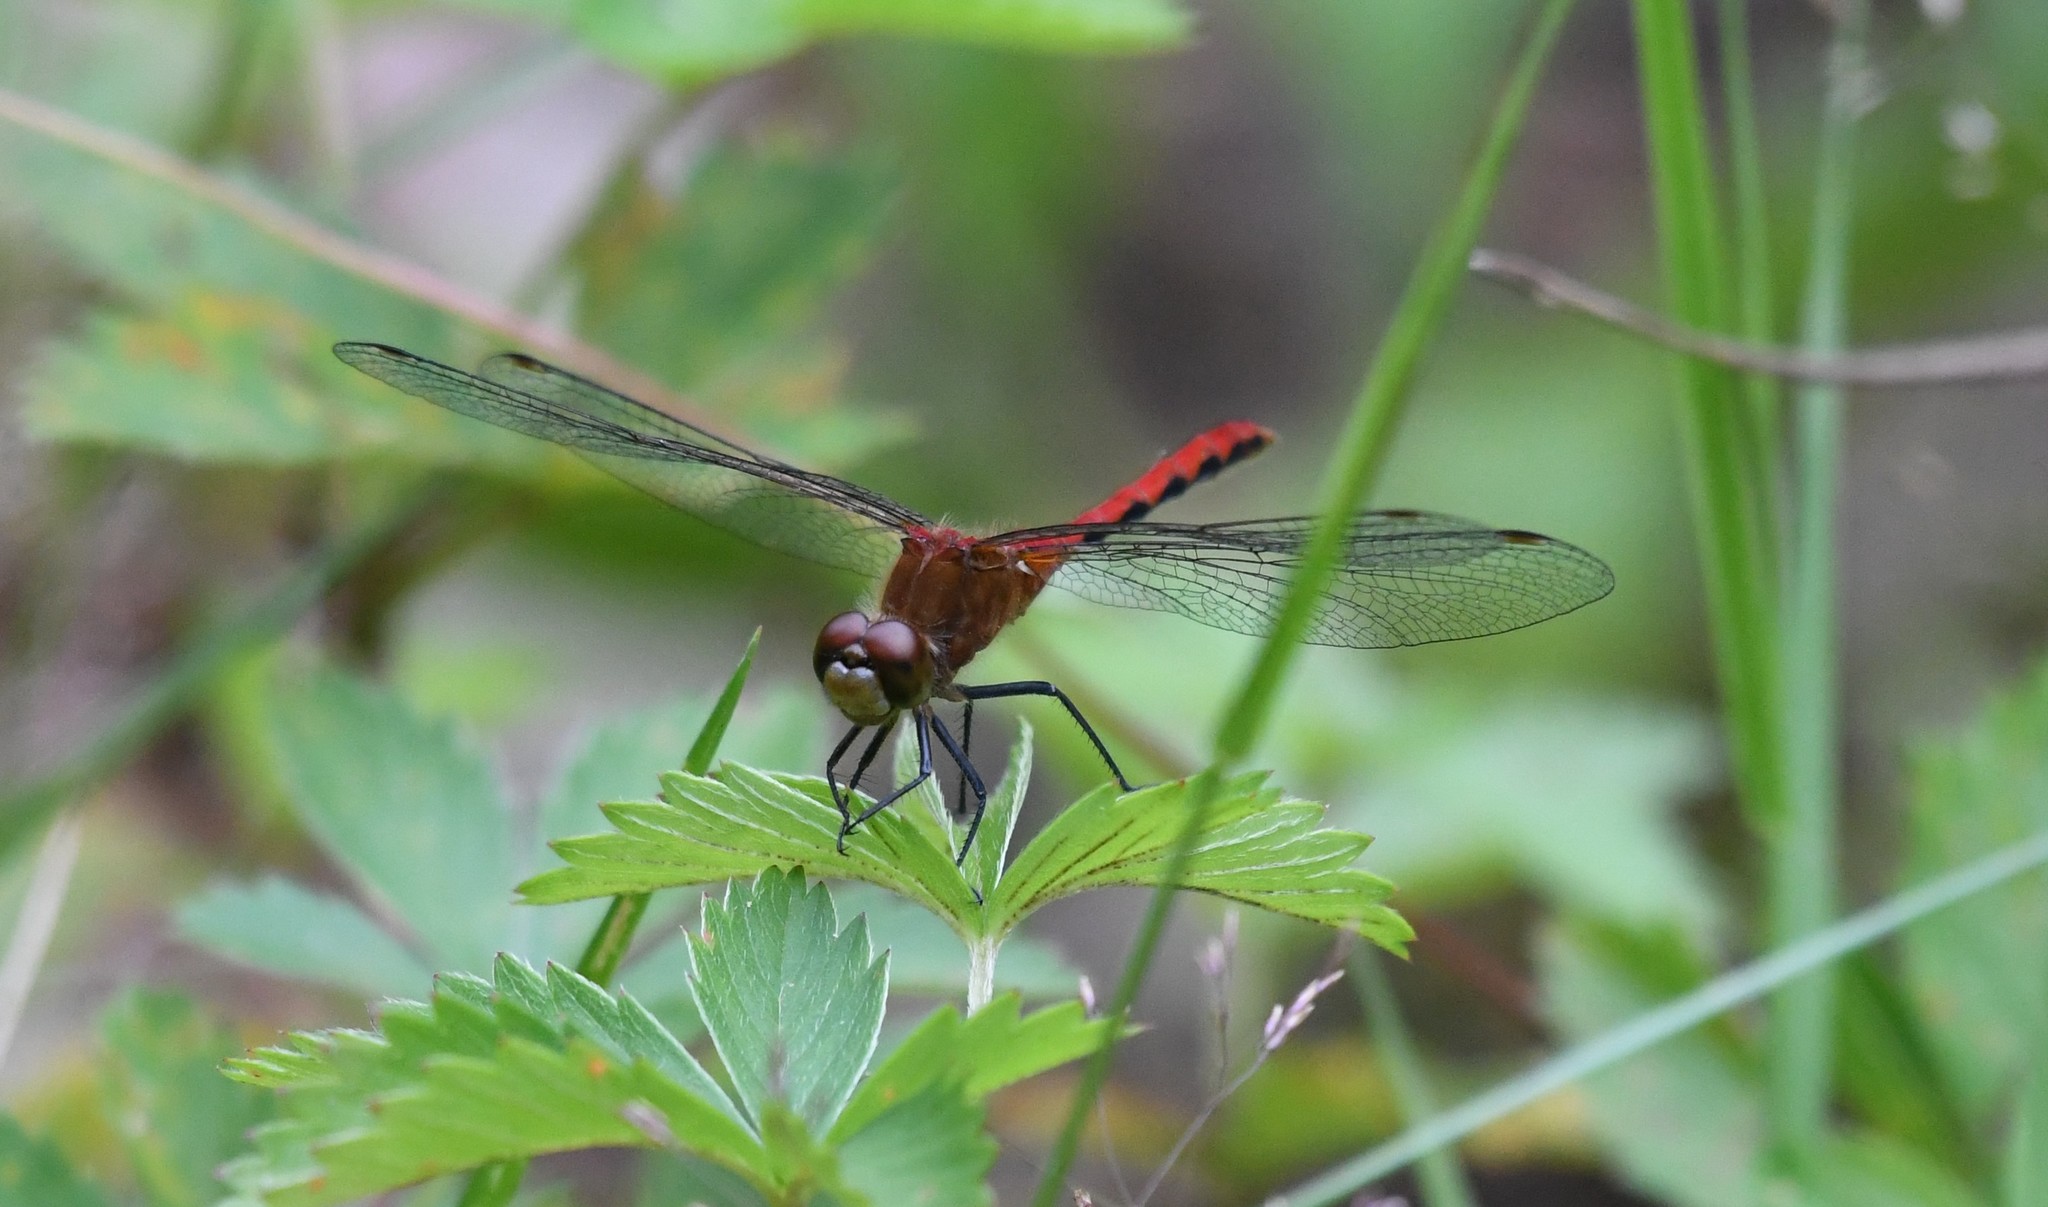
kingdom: Animalia
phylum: Arthropoda
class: Insecta
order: Odonata
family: Libellulidae
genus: Sympetrum
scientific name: Sympetrum obtrusum
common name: White-faced meadowhawk
